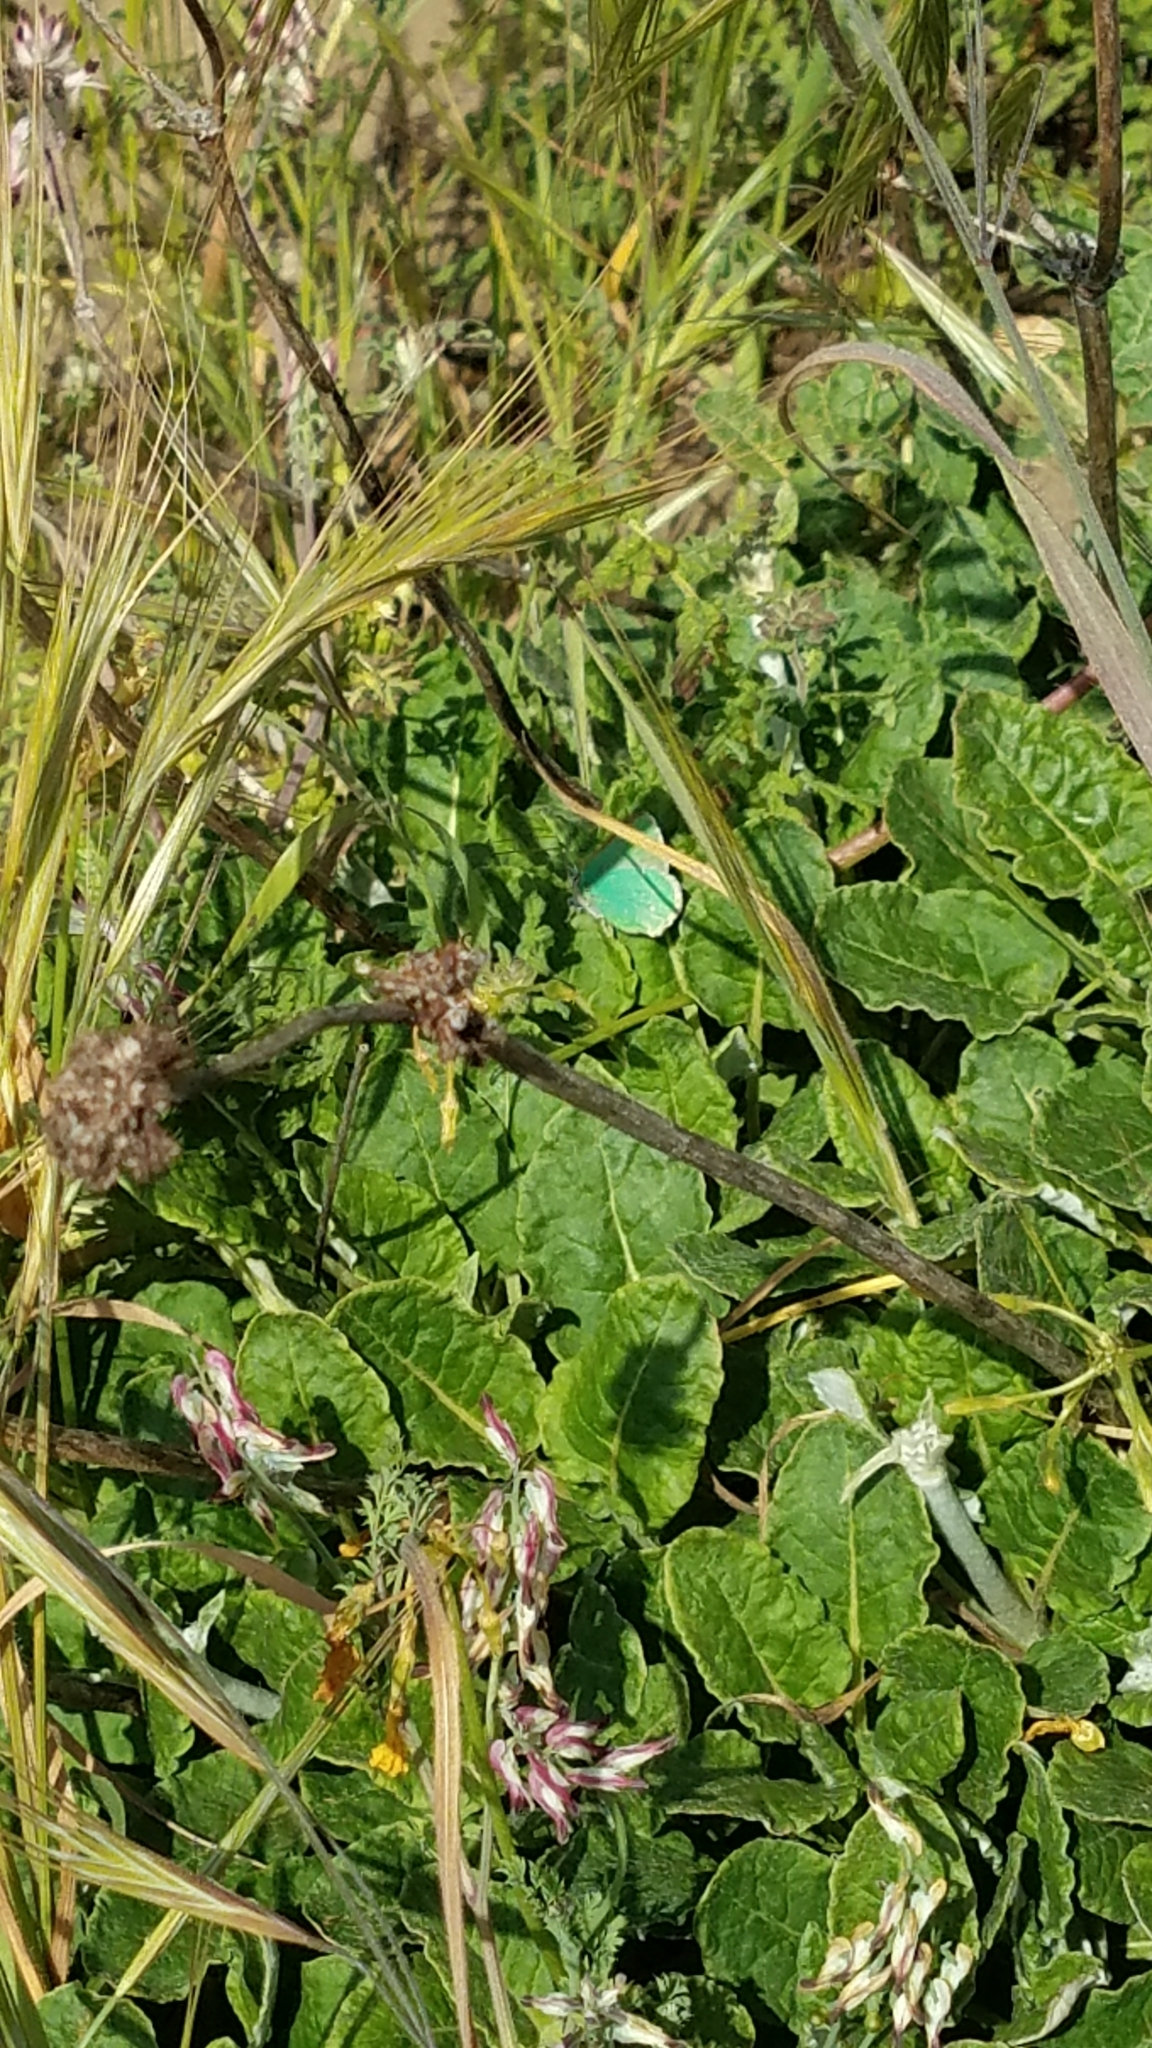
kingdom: Animalia
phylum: Arthropoda
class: Insecta
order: Lepidoptera
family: Lycaenidae
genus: Callophrys
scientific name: Callophrys viridis
